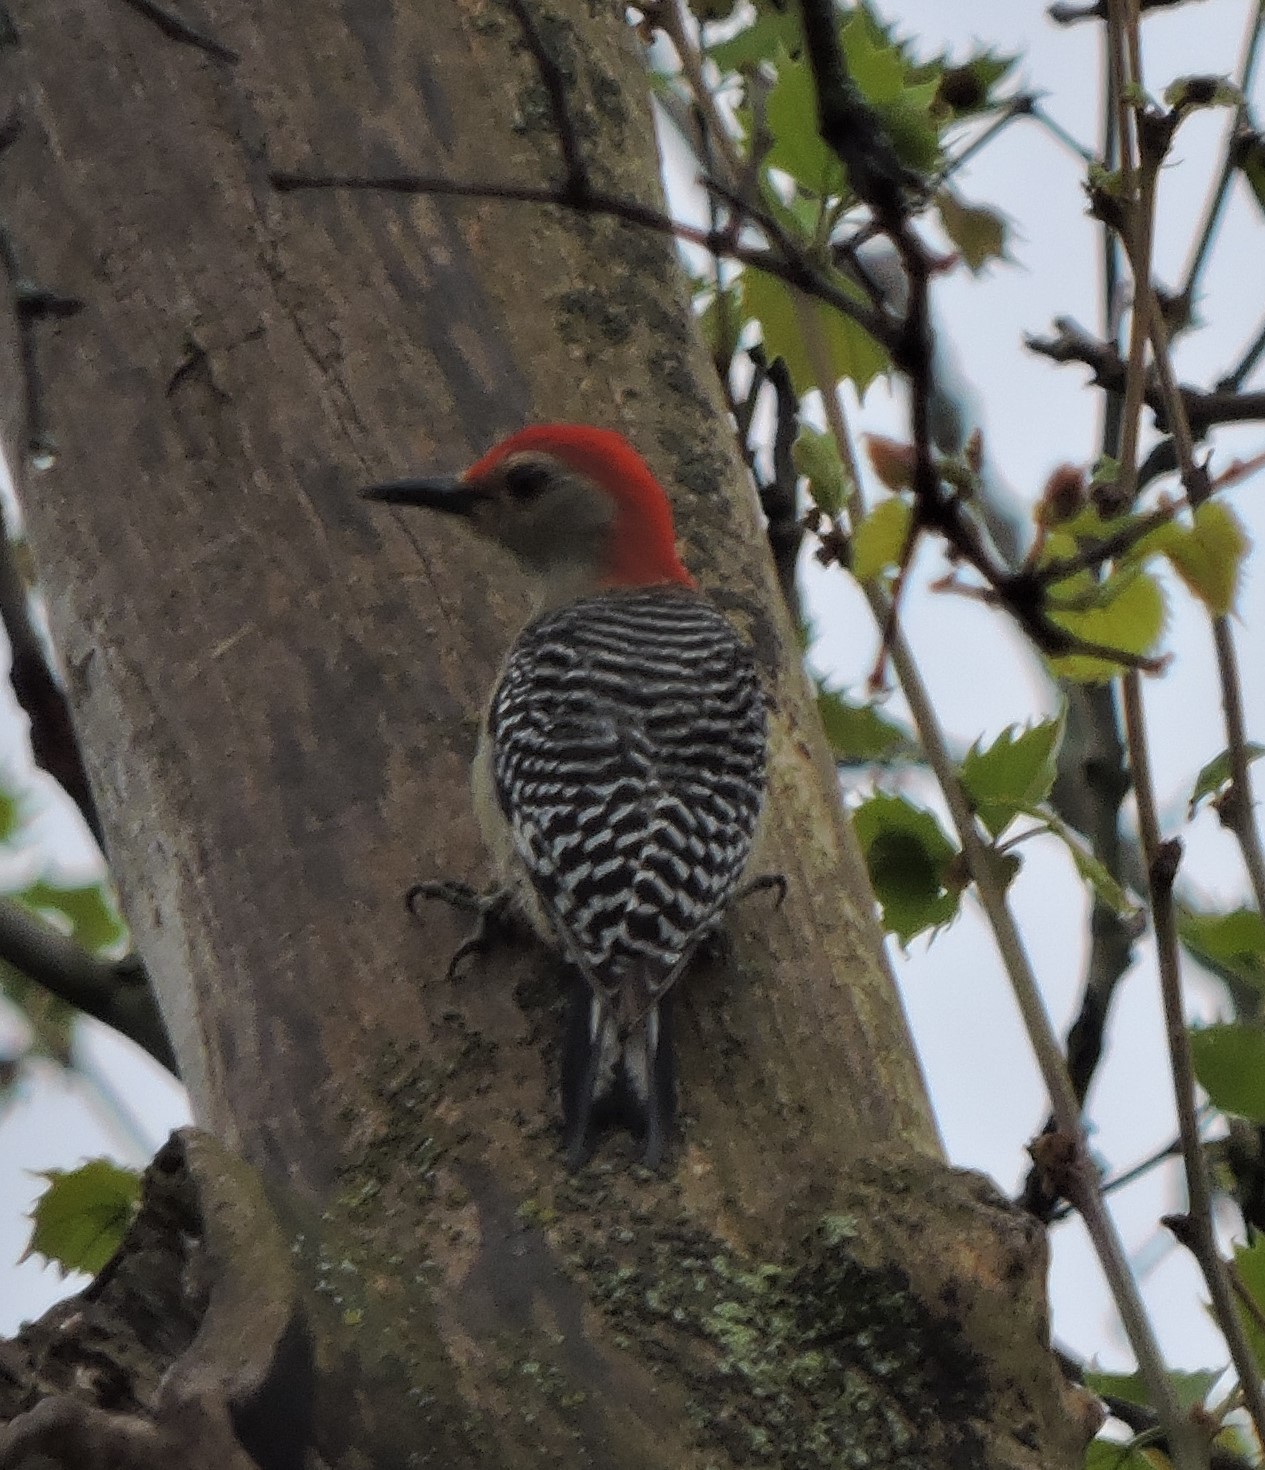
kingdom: Animalia
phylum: Chordata
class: Aves
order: Piciformes
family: Picidae
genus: Melanerpes
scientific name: Melanerpes carolinus
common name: Red-bellied woodpecker
